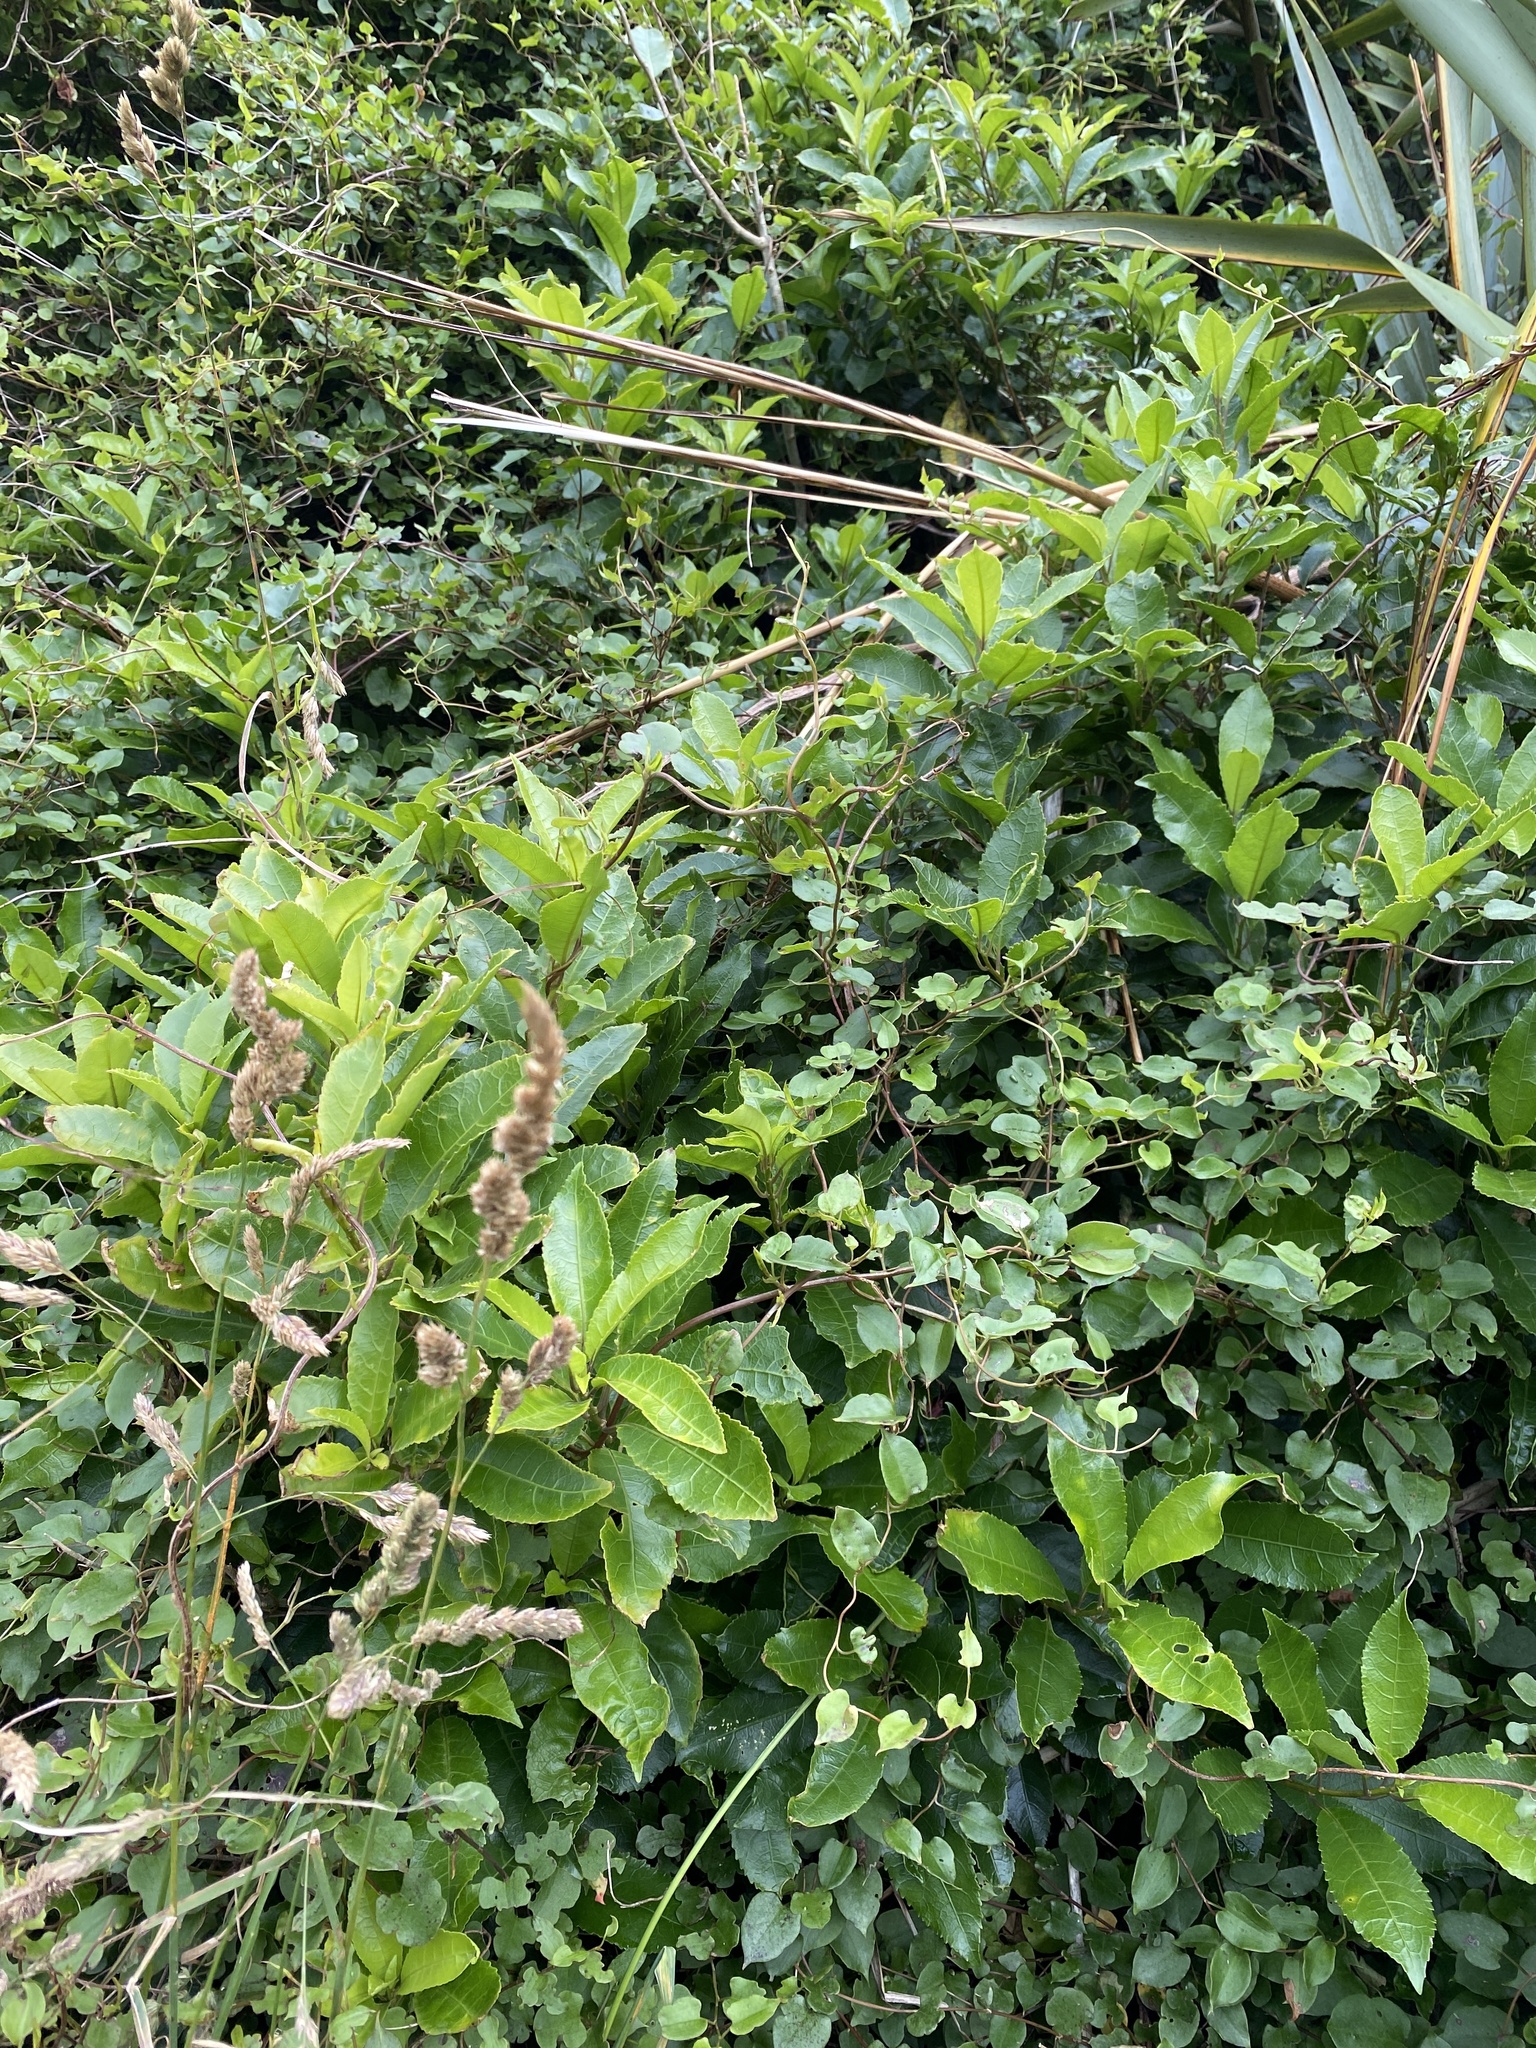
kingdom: Plantae
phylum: Tracheophyta
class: Magnoliopsida
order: Malpighiales
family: Violaceae
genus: Melicytus
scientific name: Melicytus ramiflorus
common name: Mahoe
